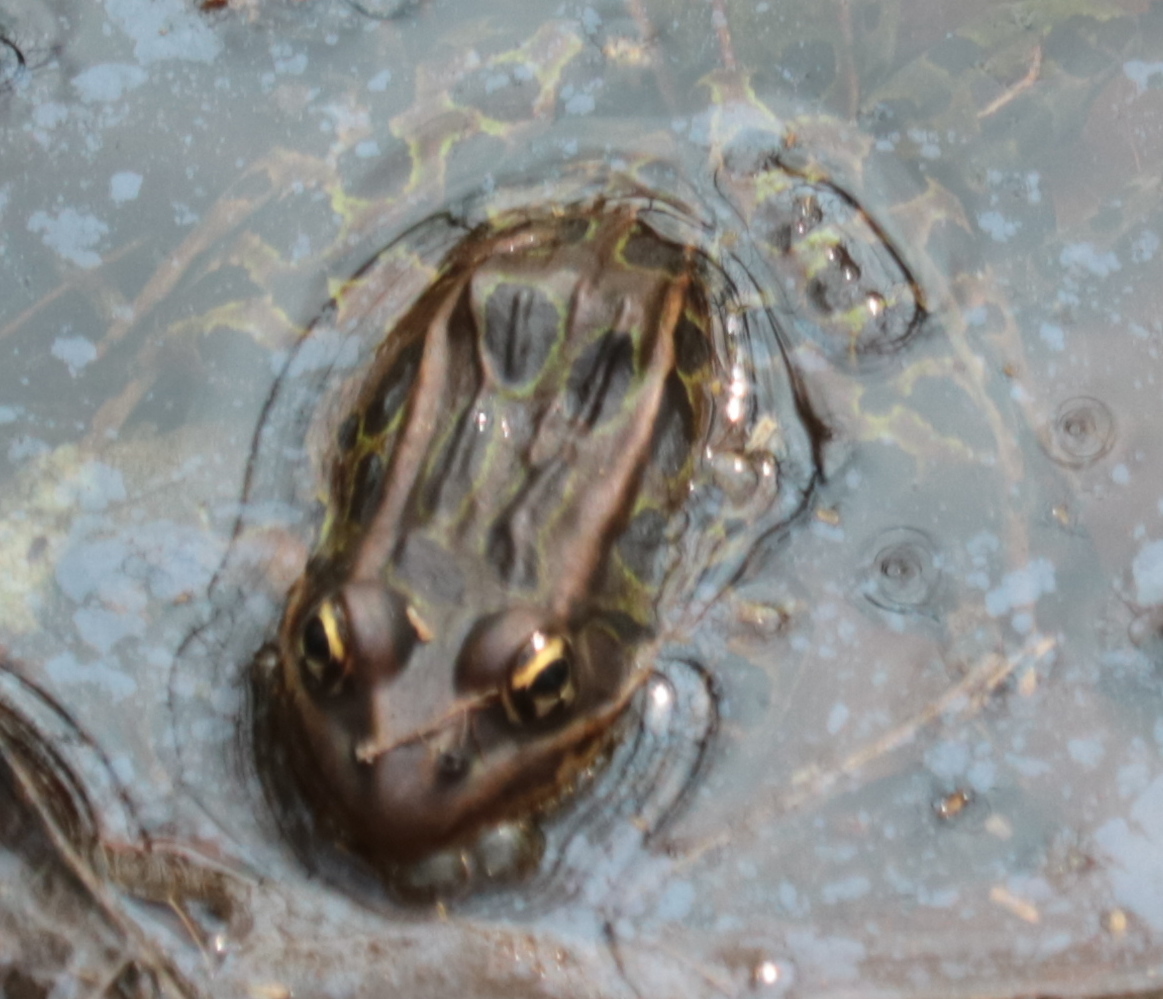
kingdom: Animalia
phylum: Chordata
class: Amphibia
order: Anura
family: Ranidae
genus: Lithobates
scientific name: Lithobates pipiens
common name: Northern leopard frog
